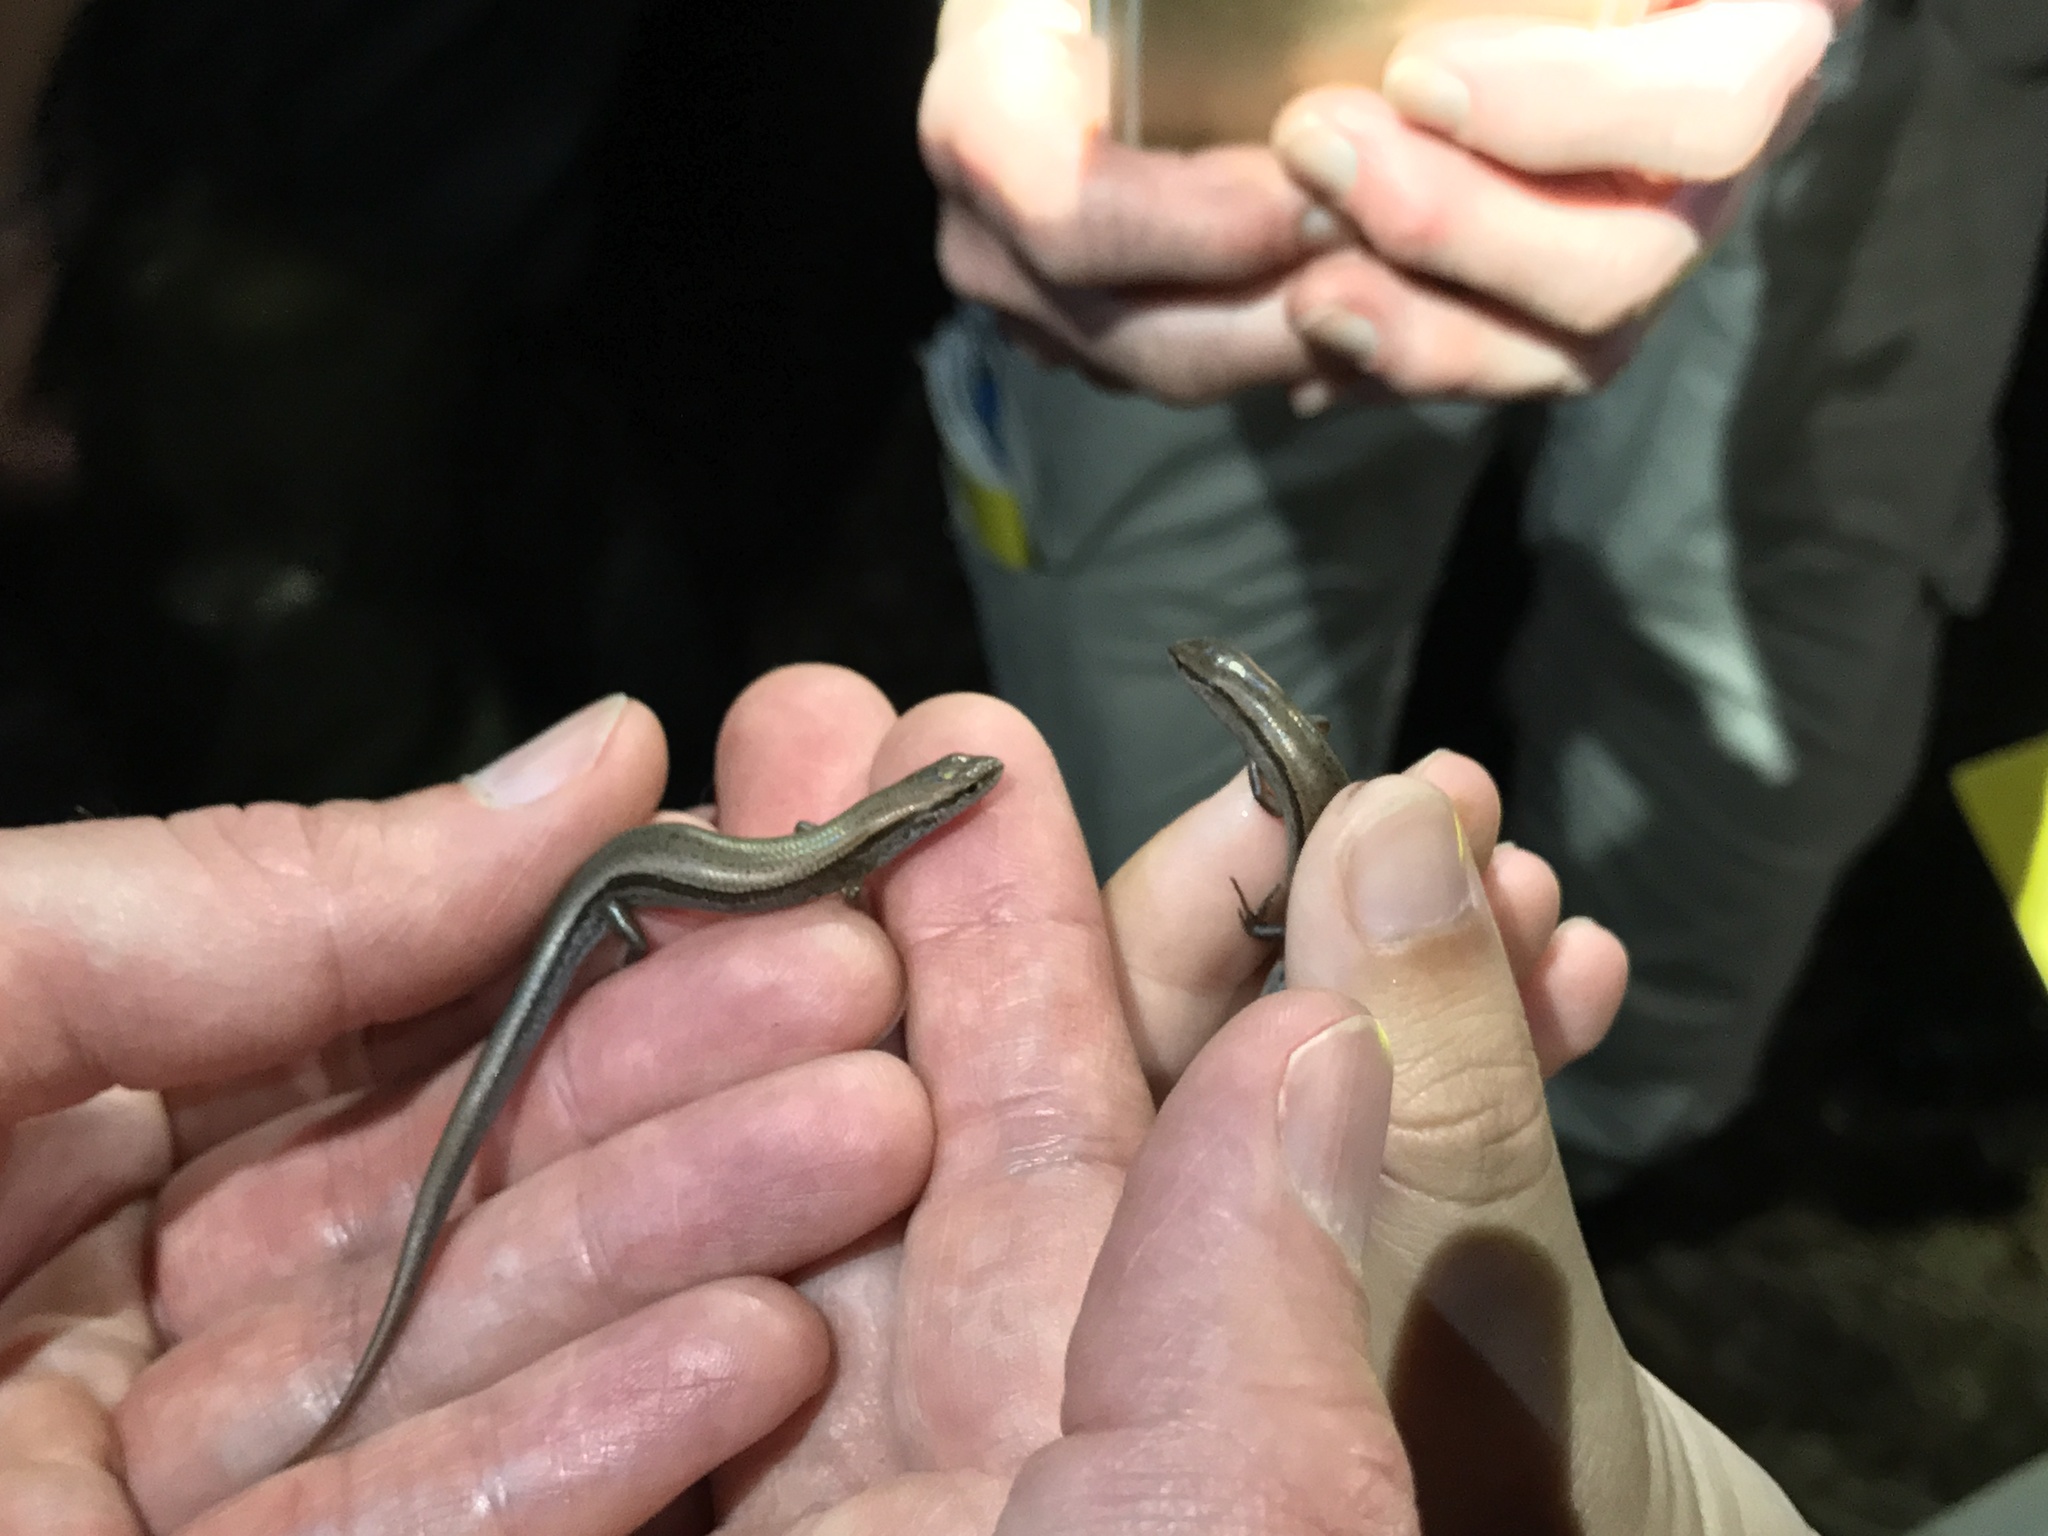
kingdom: Animalia
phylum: Chordata
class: Squamata
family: Scincidae
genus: Scincella
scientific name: Scincella lateralis
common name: Ground skink
